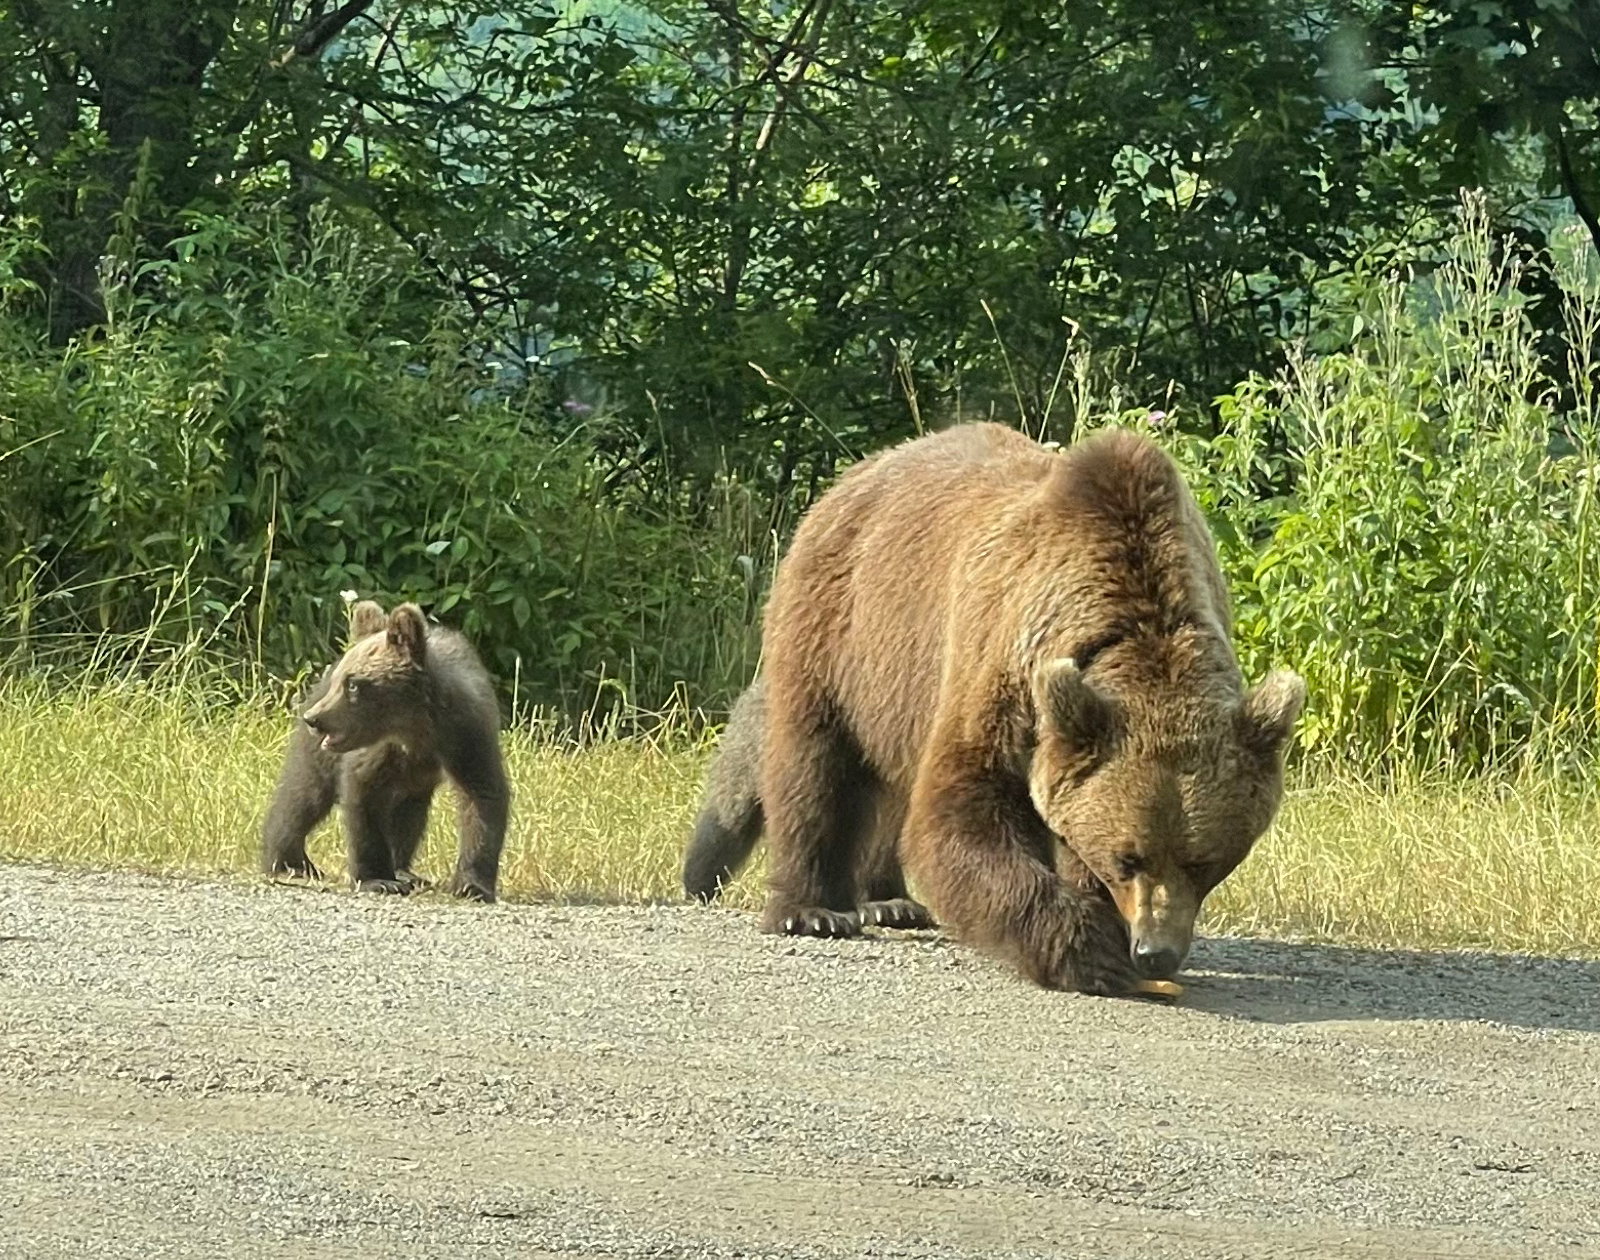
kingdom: Animalia
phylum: Chordata
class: Mammalia
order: Carnivora
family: Ursidae
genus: Ursus
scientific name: Ursus arctos
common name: Brown bear
